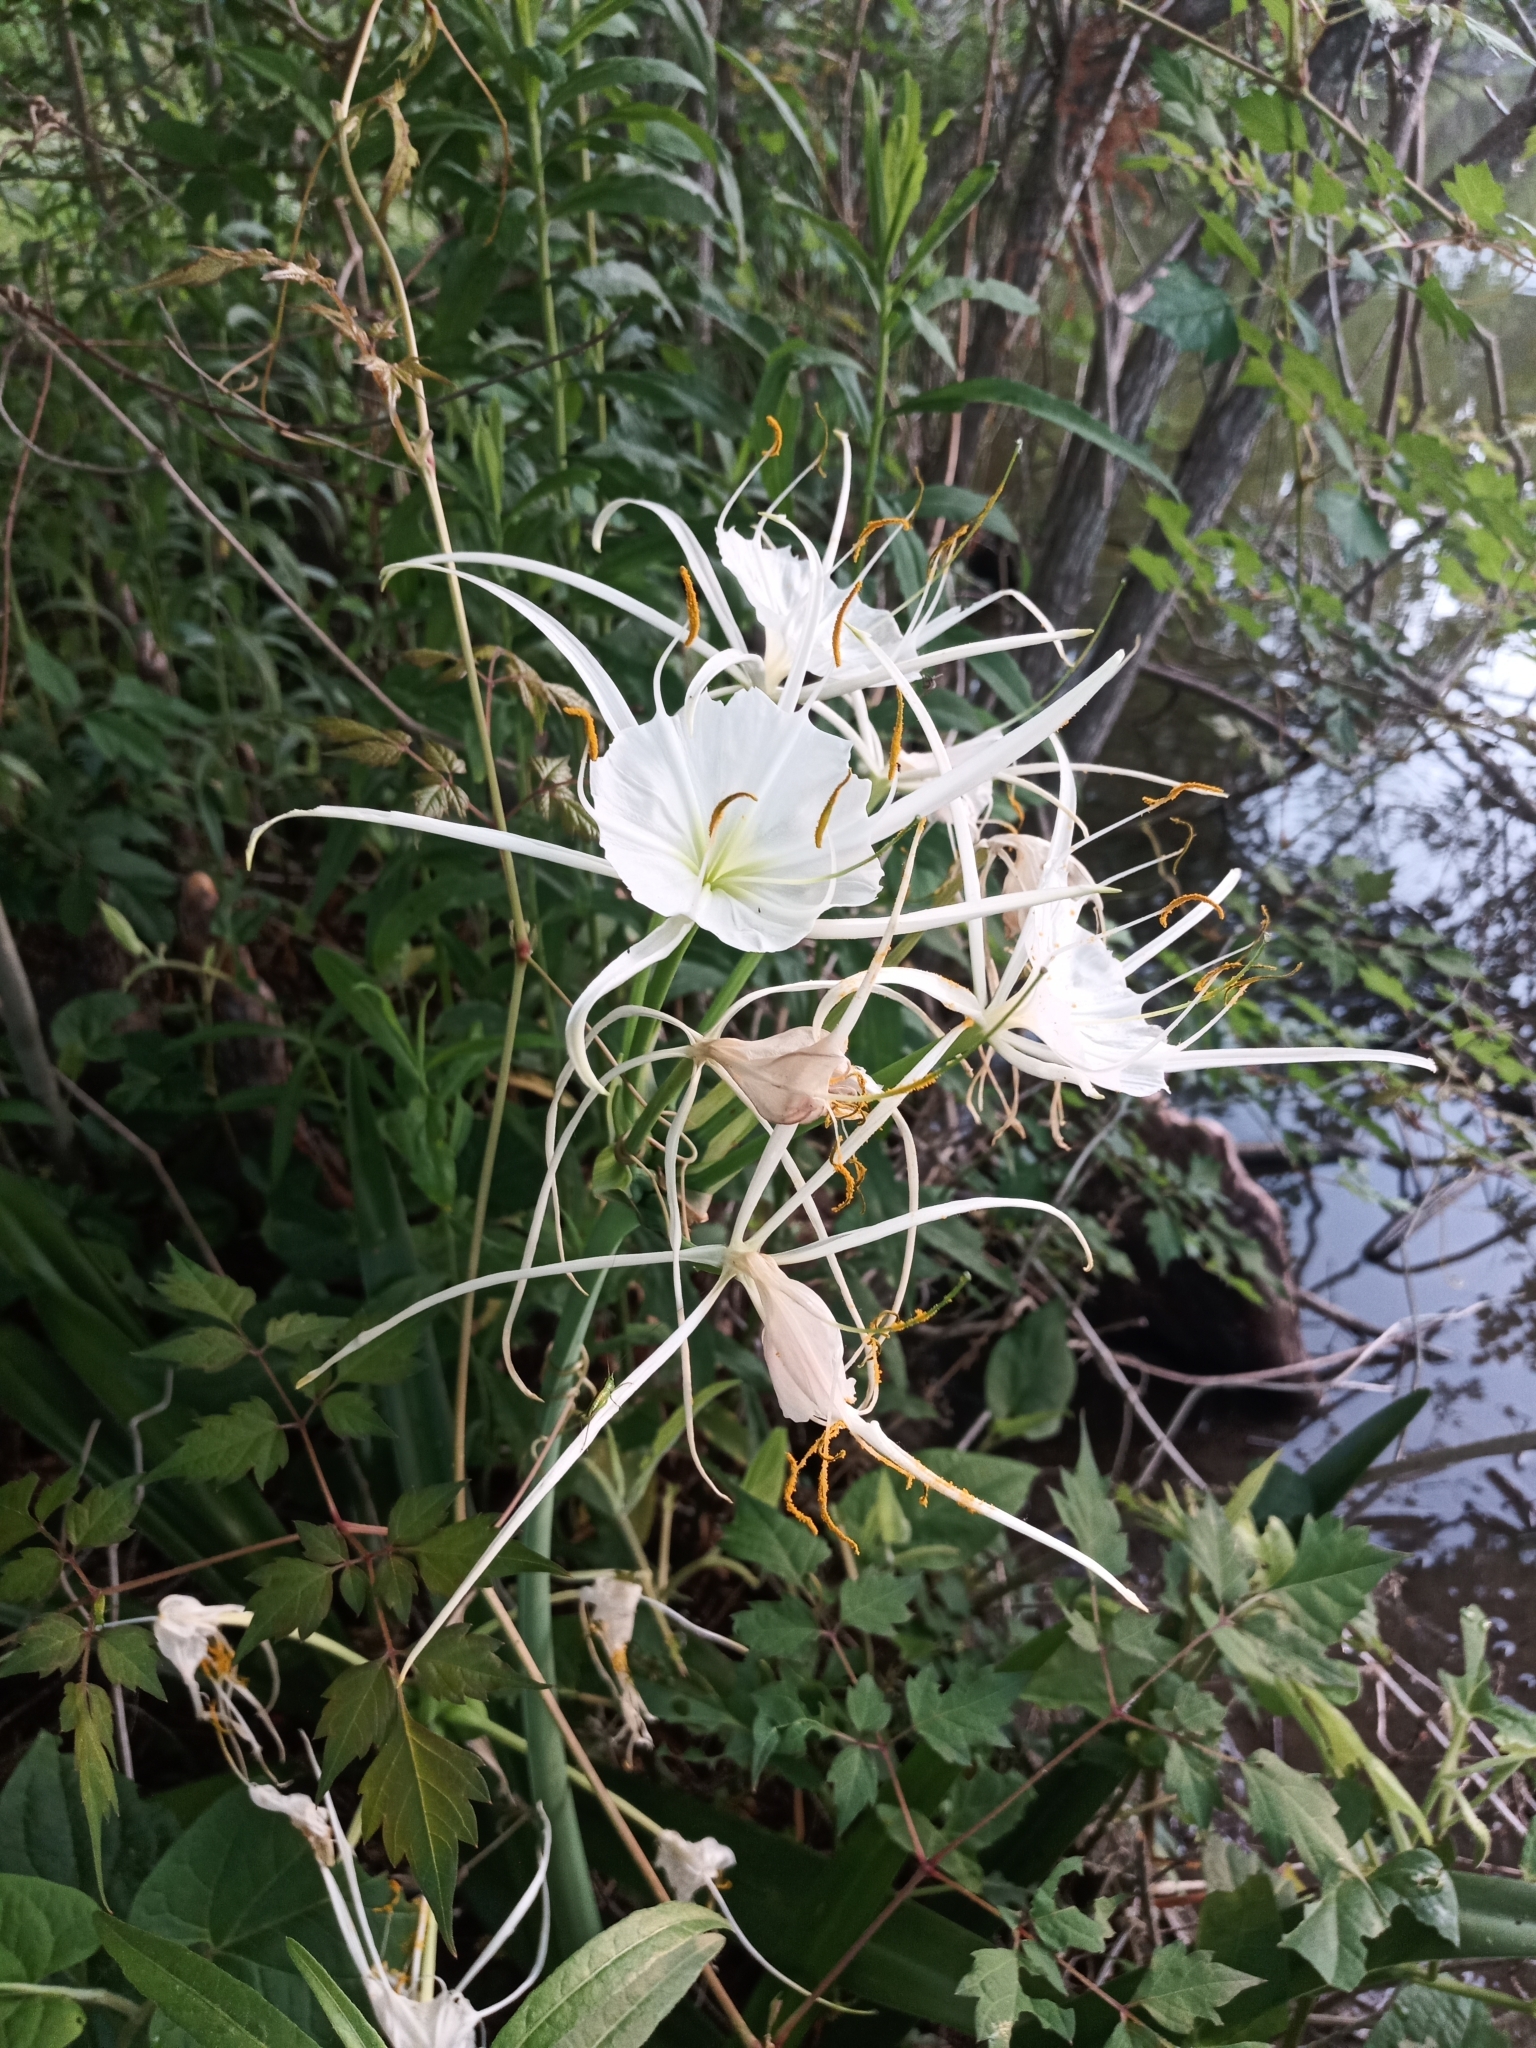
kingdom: Plantae
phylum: Tracheophyta
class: Liliopsida
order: Asparagales
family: Amaryllidaceae
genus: Hymenocallis
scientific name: Hymenocallis liriosme
